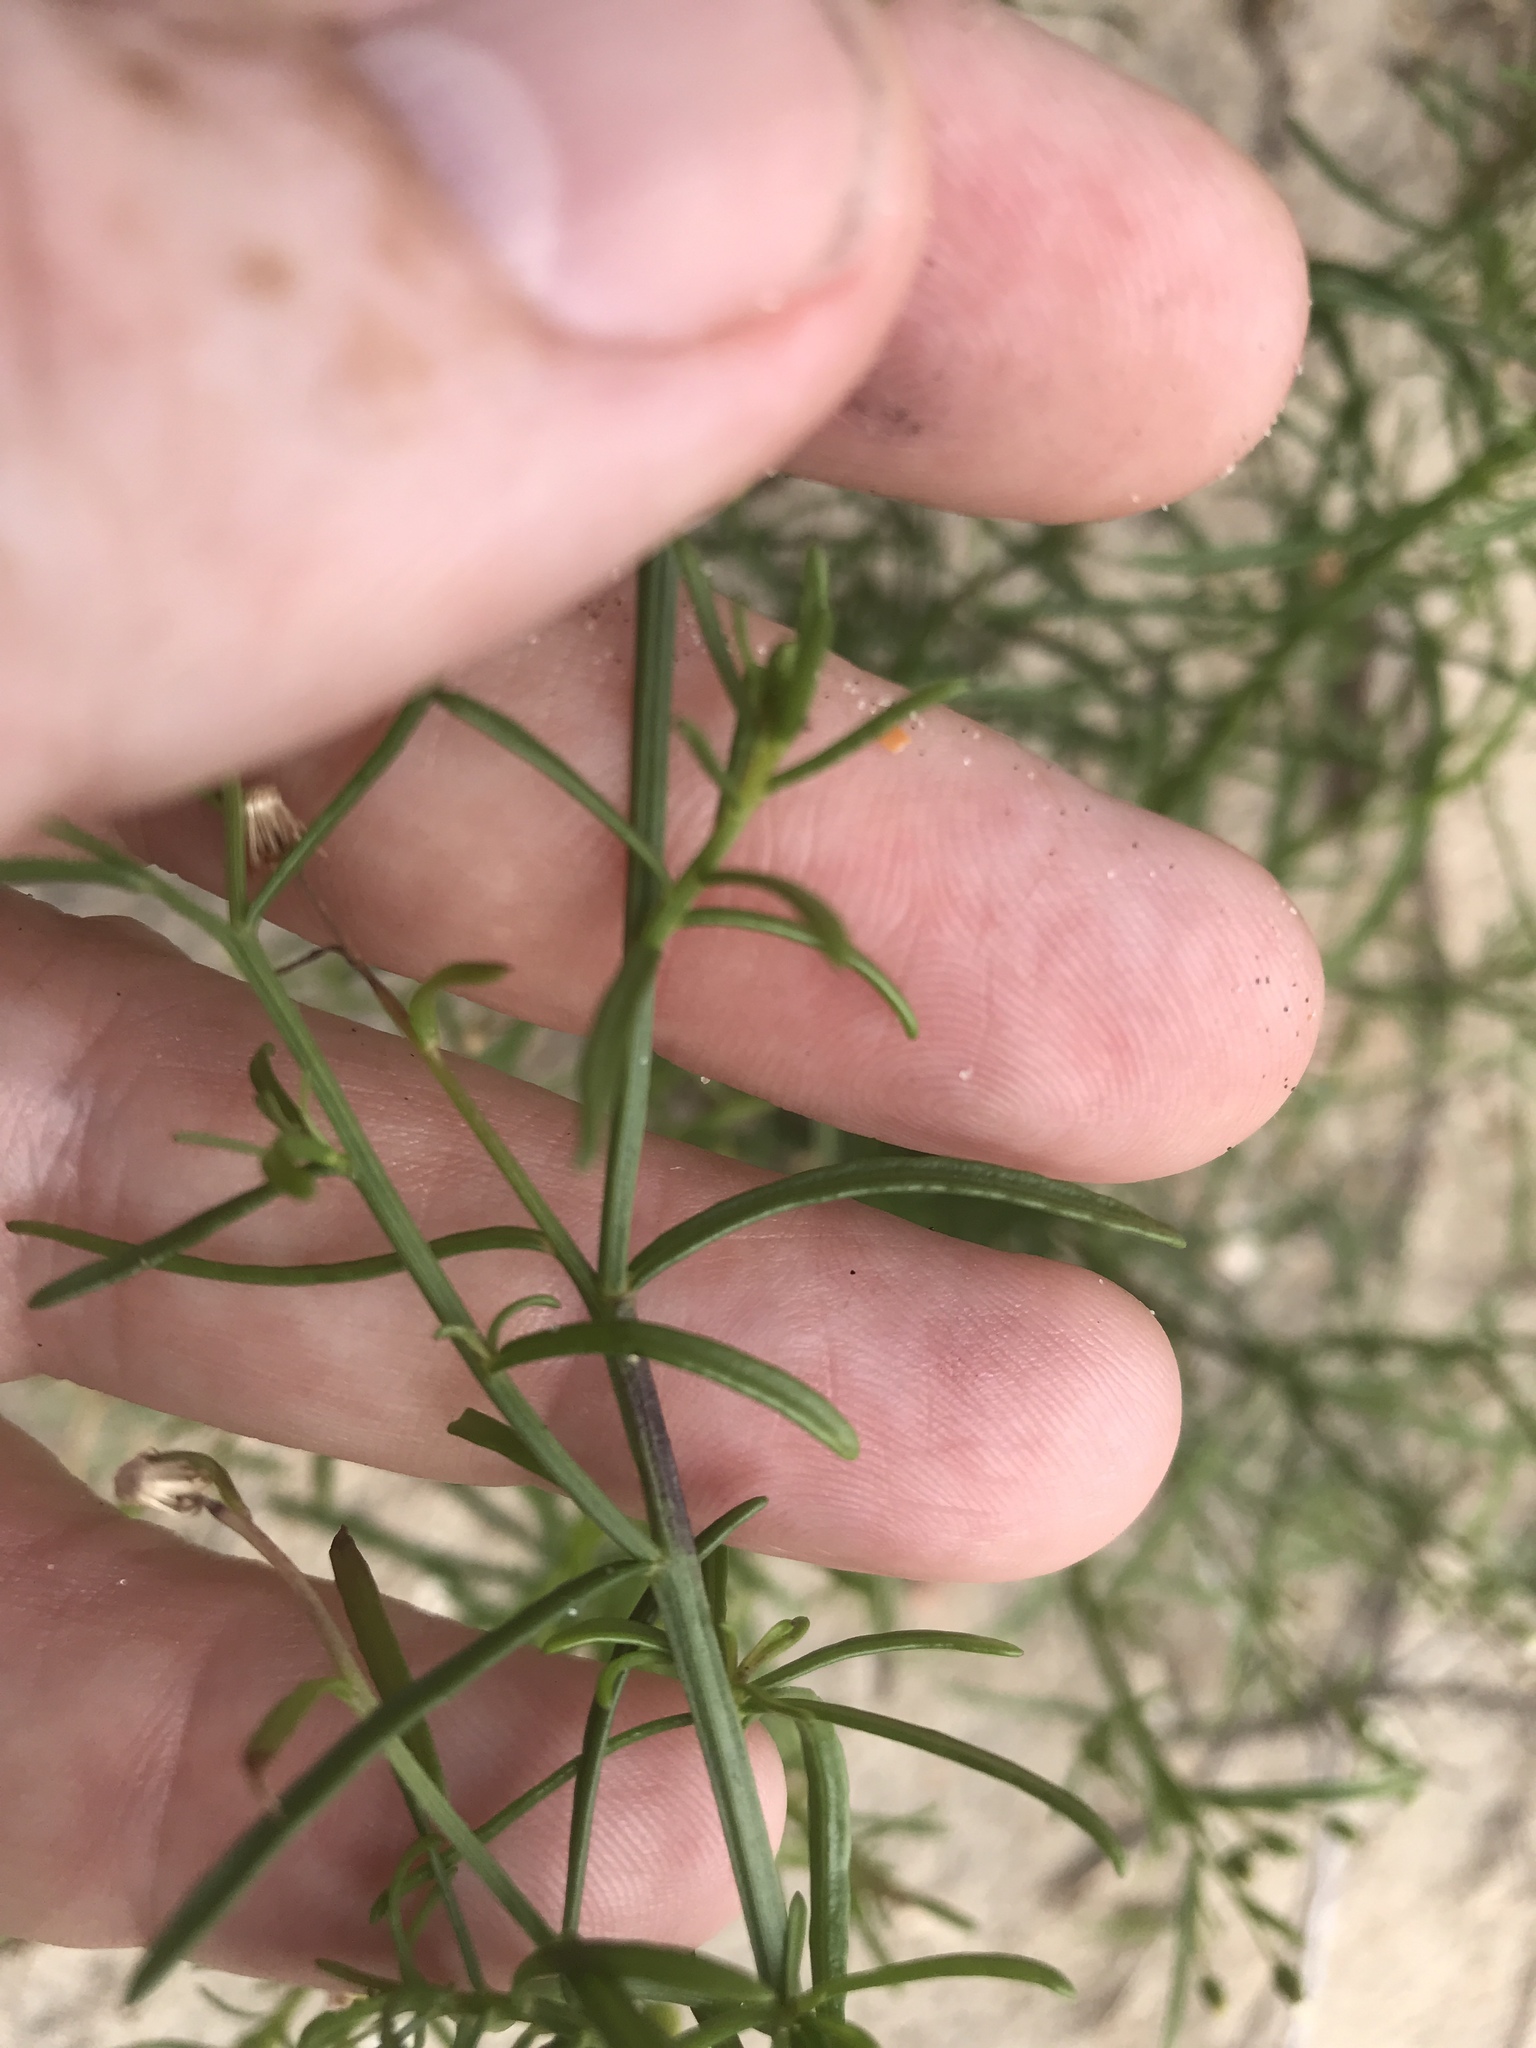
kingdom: Plantae
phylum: Tracheophyta
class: Magnoliopsida
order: Asterales
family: Asteraceae
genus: Erigeron
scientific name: Erigeron canadensis
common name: Canadian fleabane
